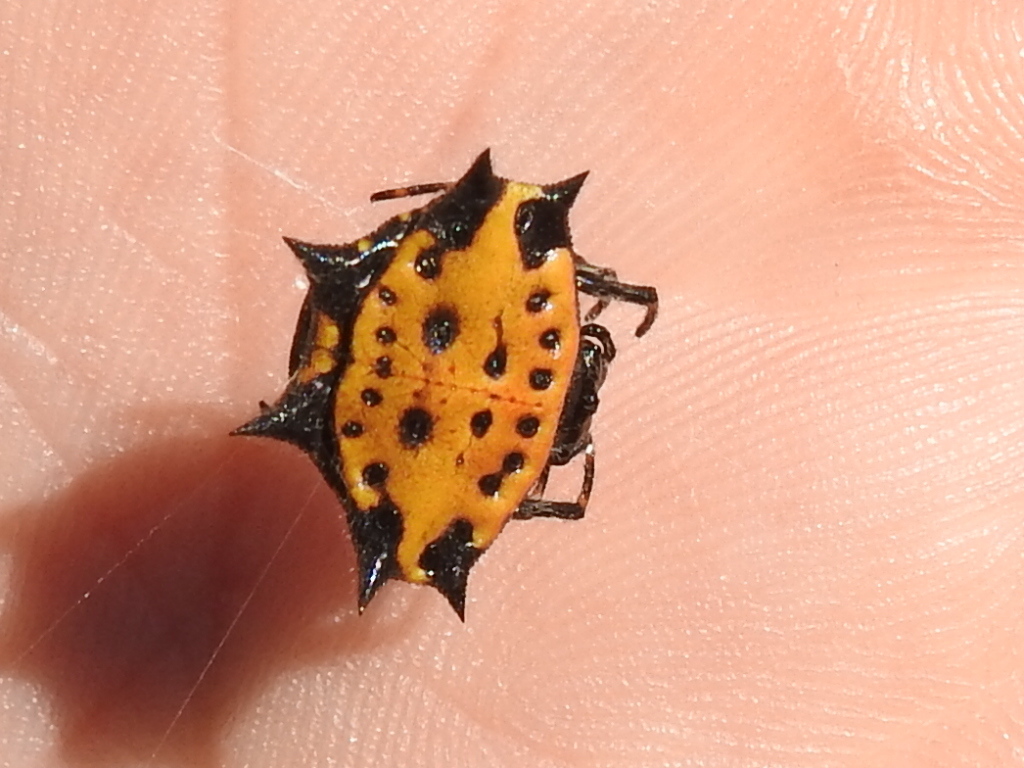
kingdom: Animalia
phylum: Arthropoda
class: Arachnida
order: Araneae
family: Araneidae
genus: Gasteracantha
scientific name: Gasteracantha cancriformis
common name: Orb weavers
